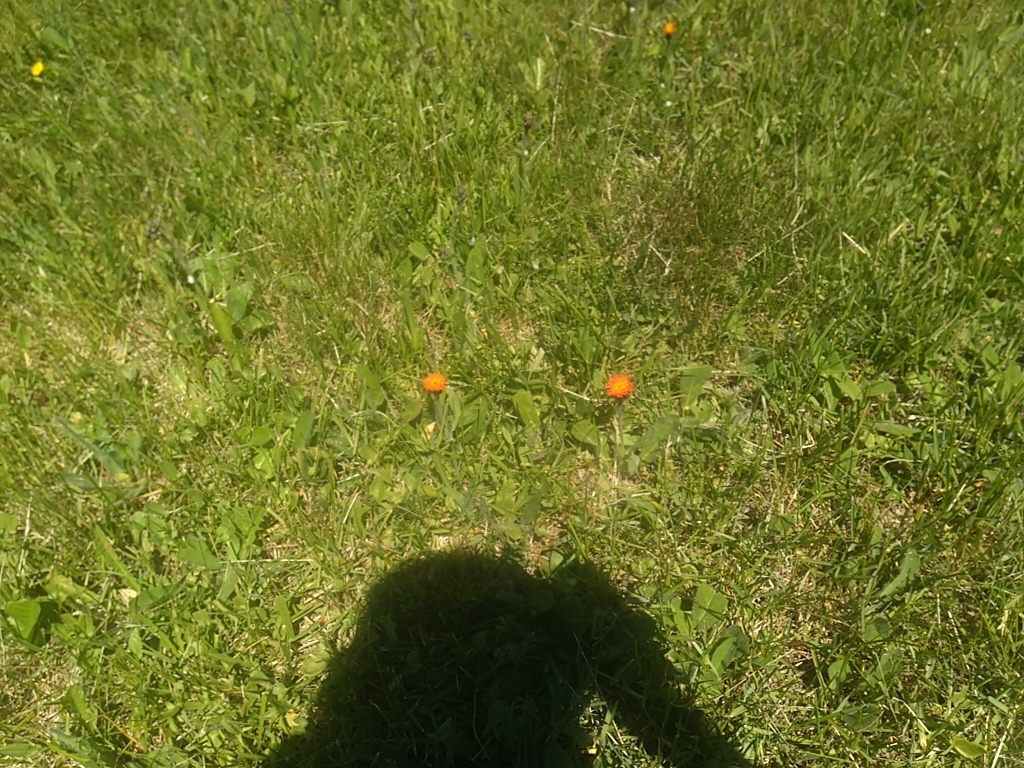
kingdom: Plantae
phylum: Tracheophyta
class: Magnoliopsida
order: Asterales
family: Asteraceae
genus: Pilosella
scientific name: Pilosella aurantiaca
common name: Fox-and-cubs
